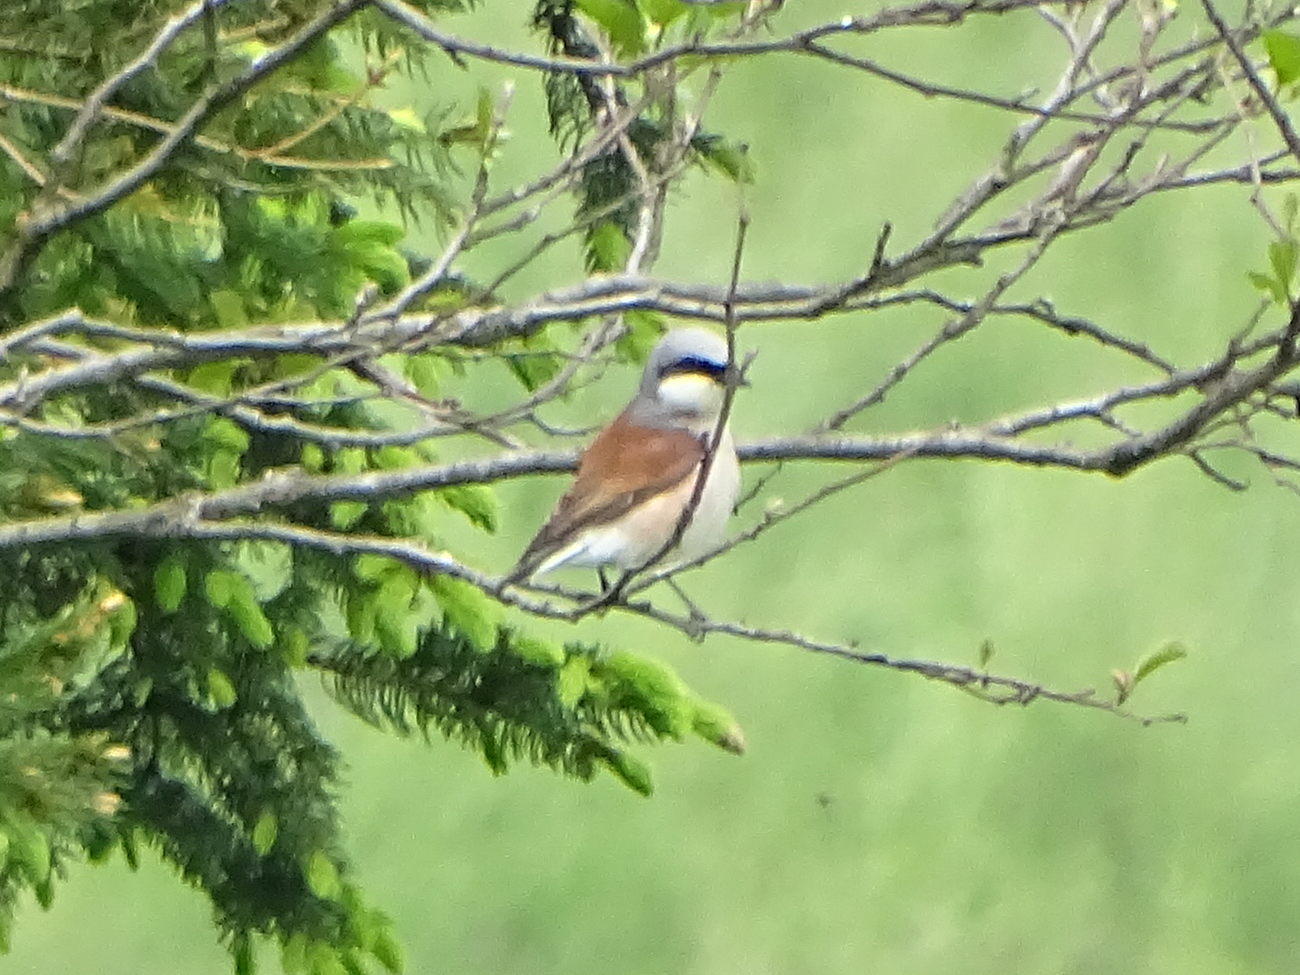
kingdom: Animalia
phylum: Chordata
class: Aves
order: Passeriformes
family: Laniidae
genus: Lanius
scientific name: Lanius collurio
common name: Red-backed shrike
